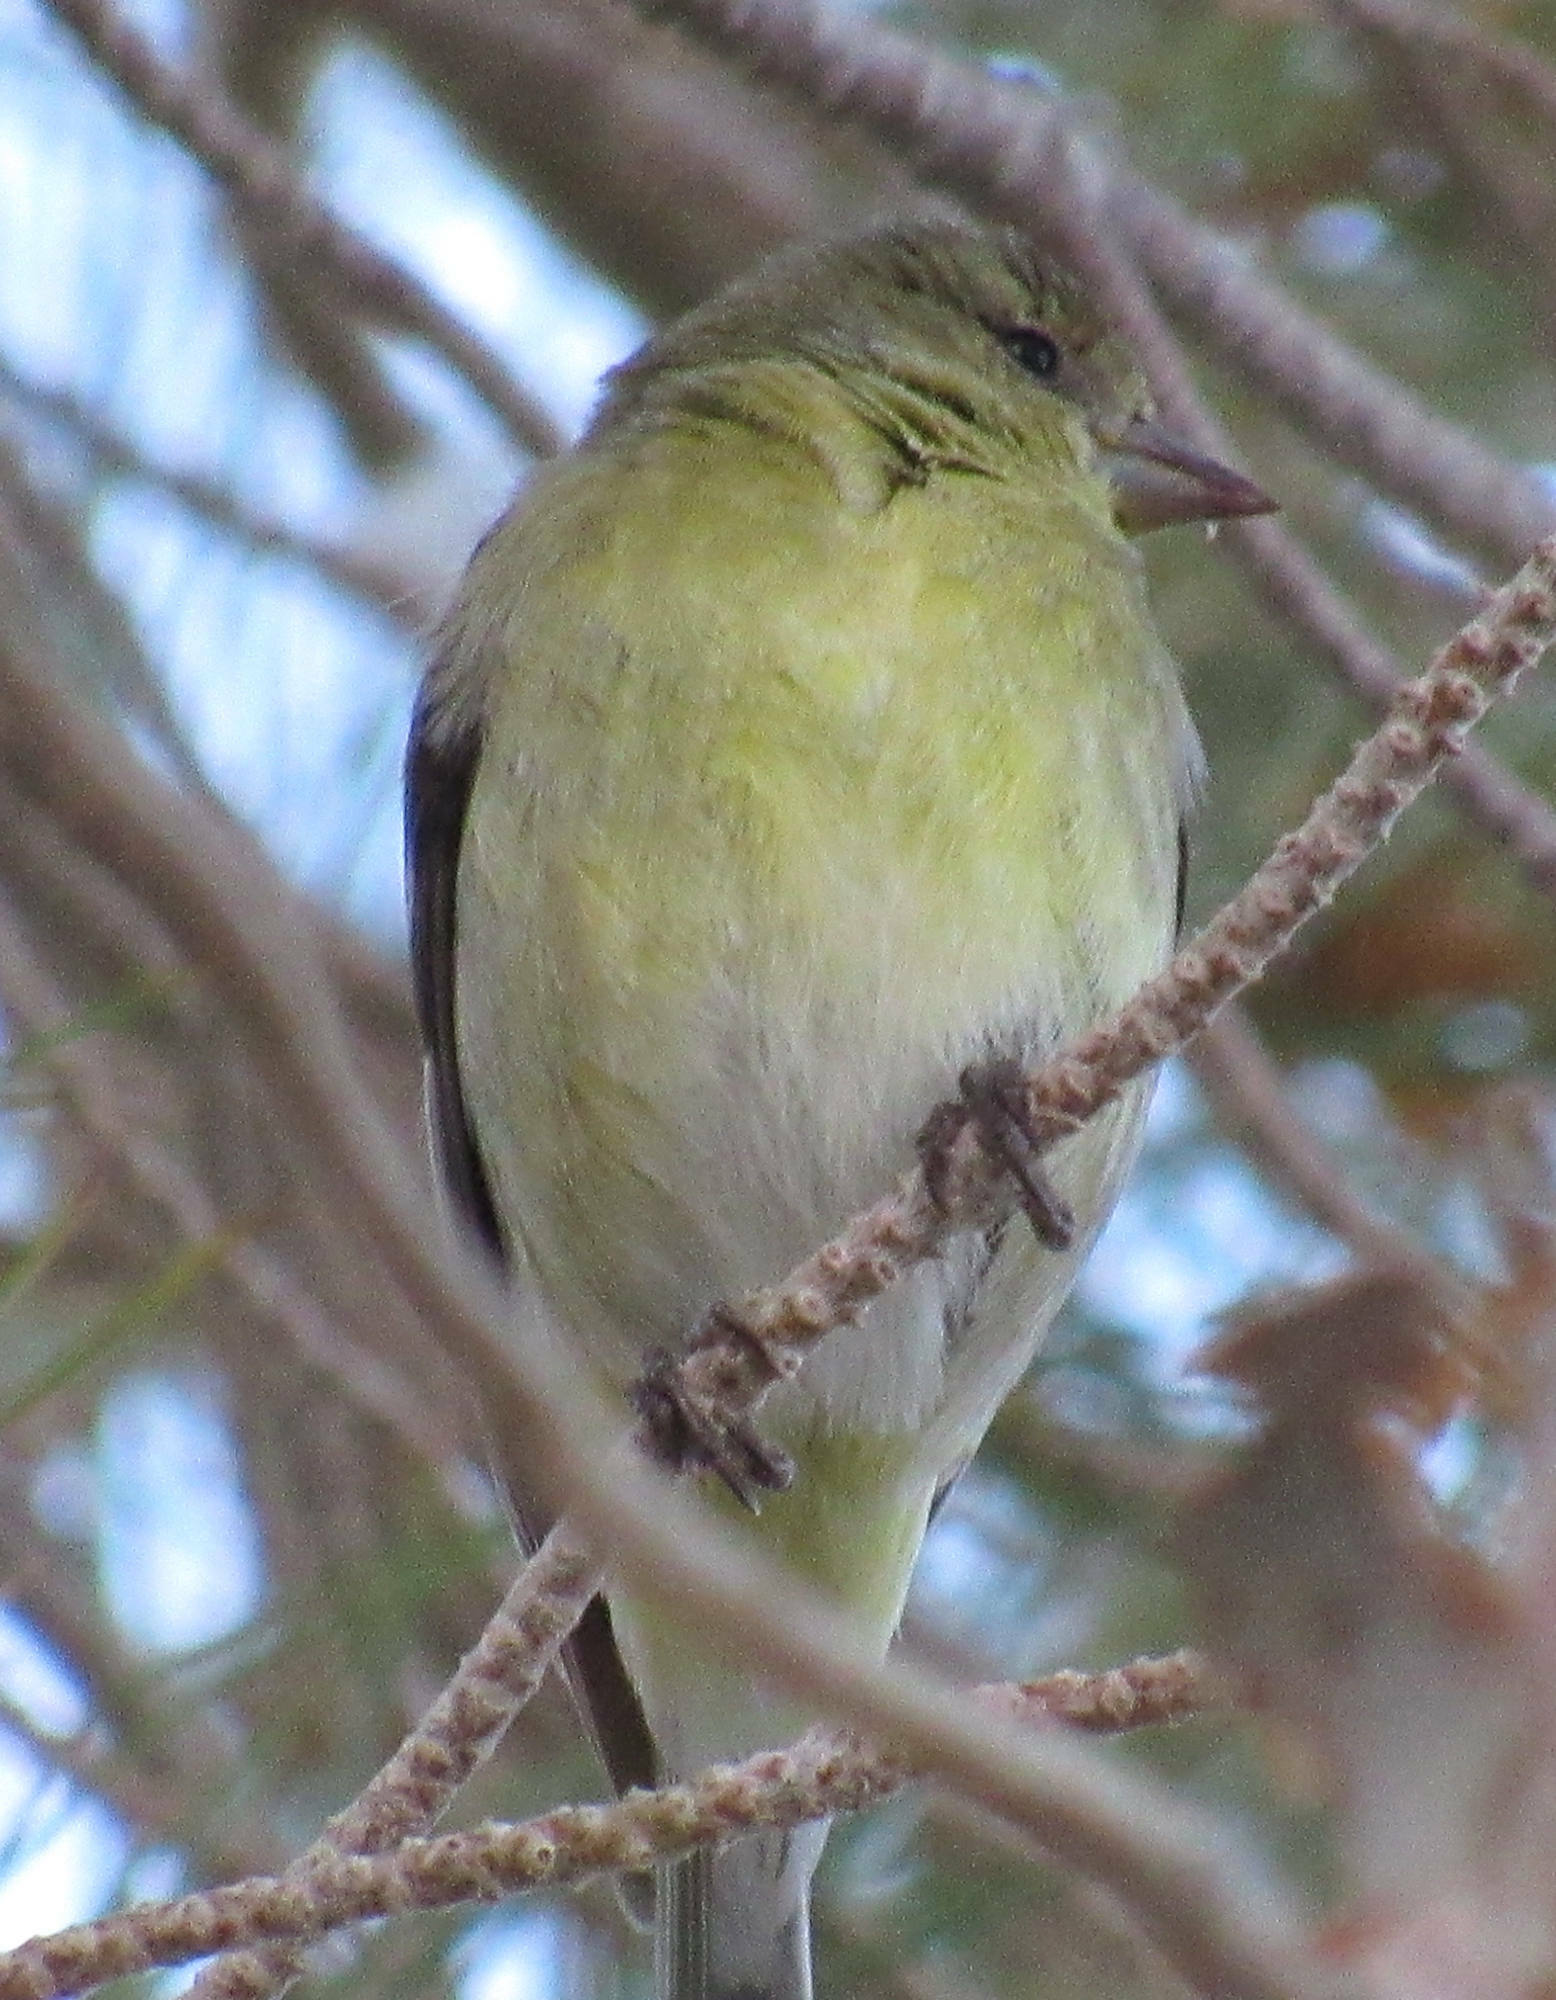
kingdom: Animalia
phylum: Chordata
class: Aves
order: Passeriformes
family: Fringillidae
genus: Spinus
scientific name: Spinus tristis
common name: American goldfinch
